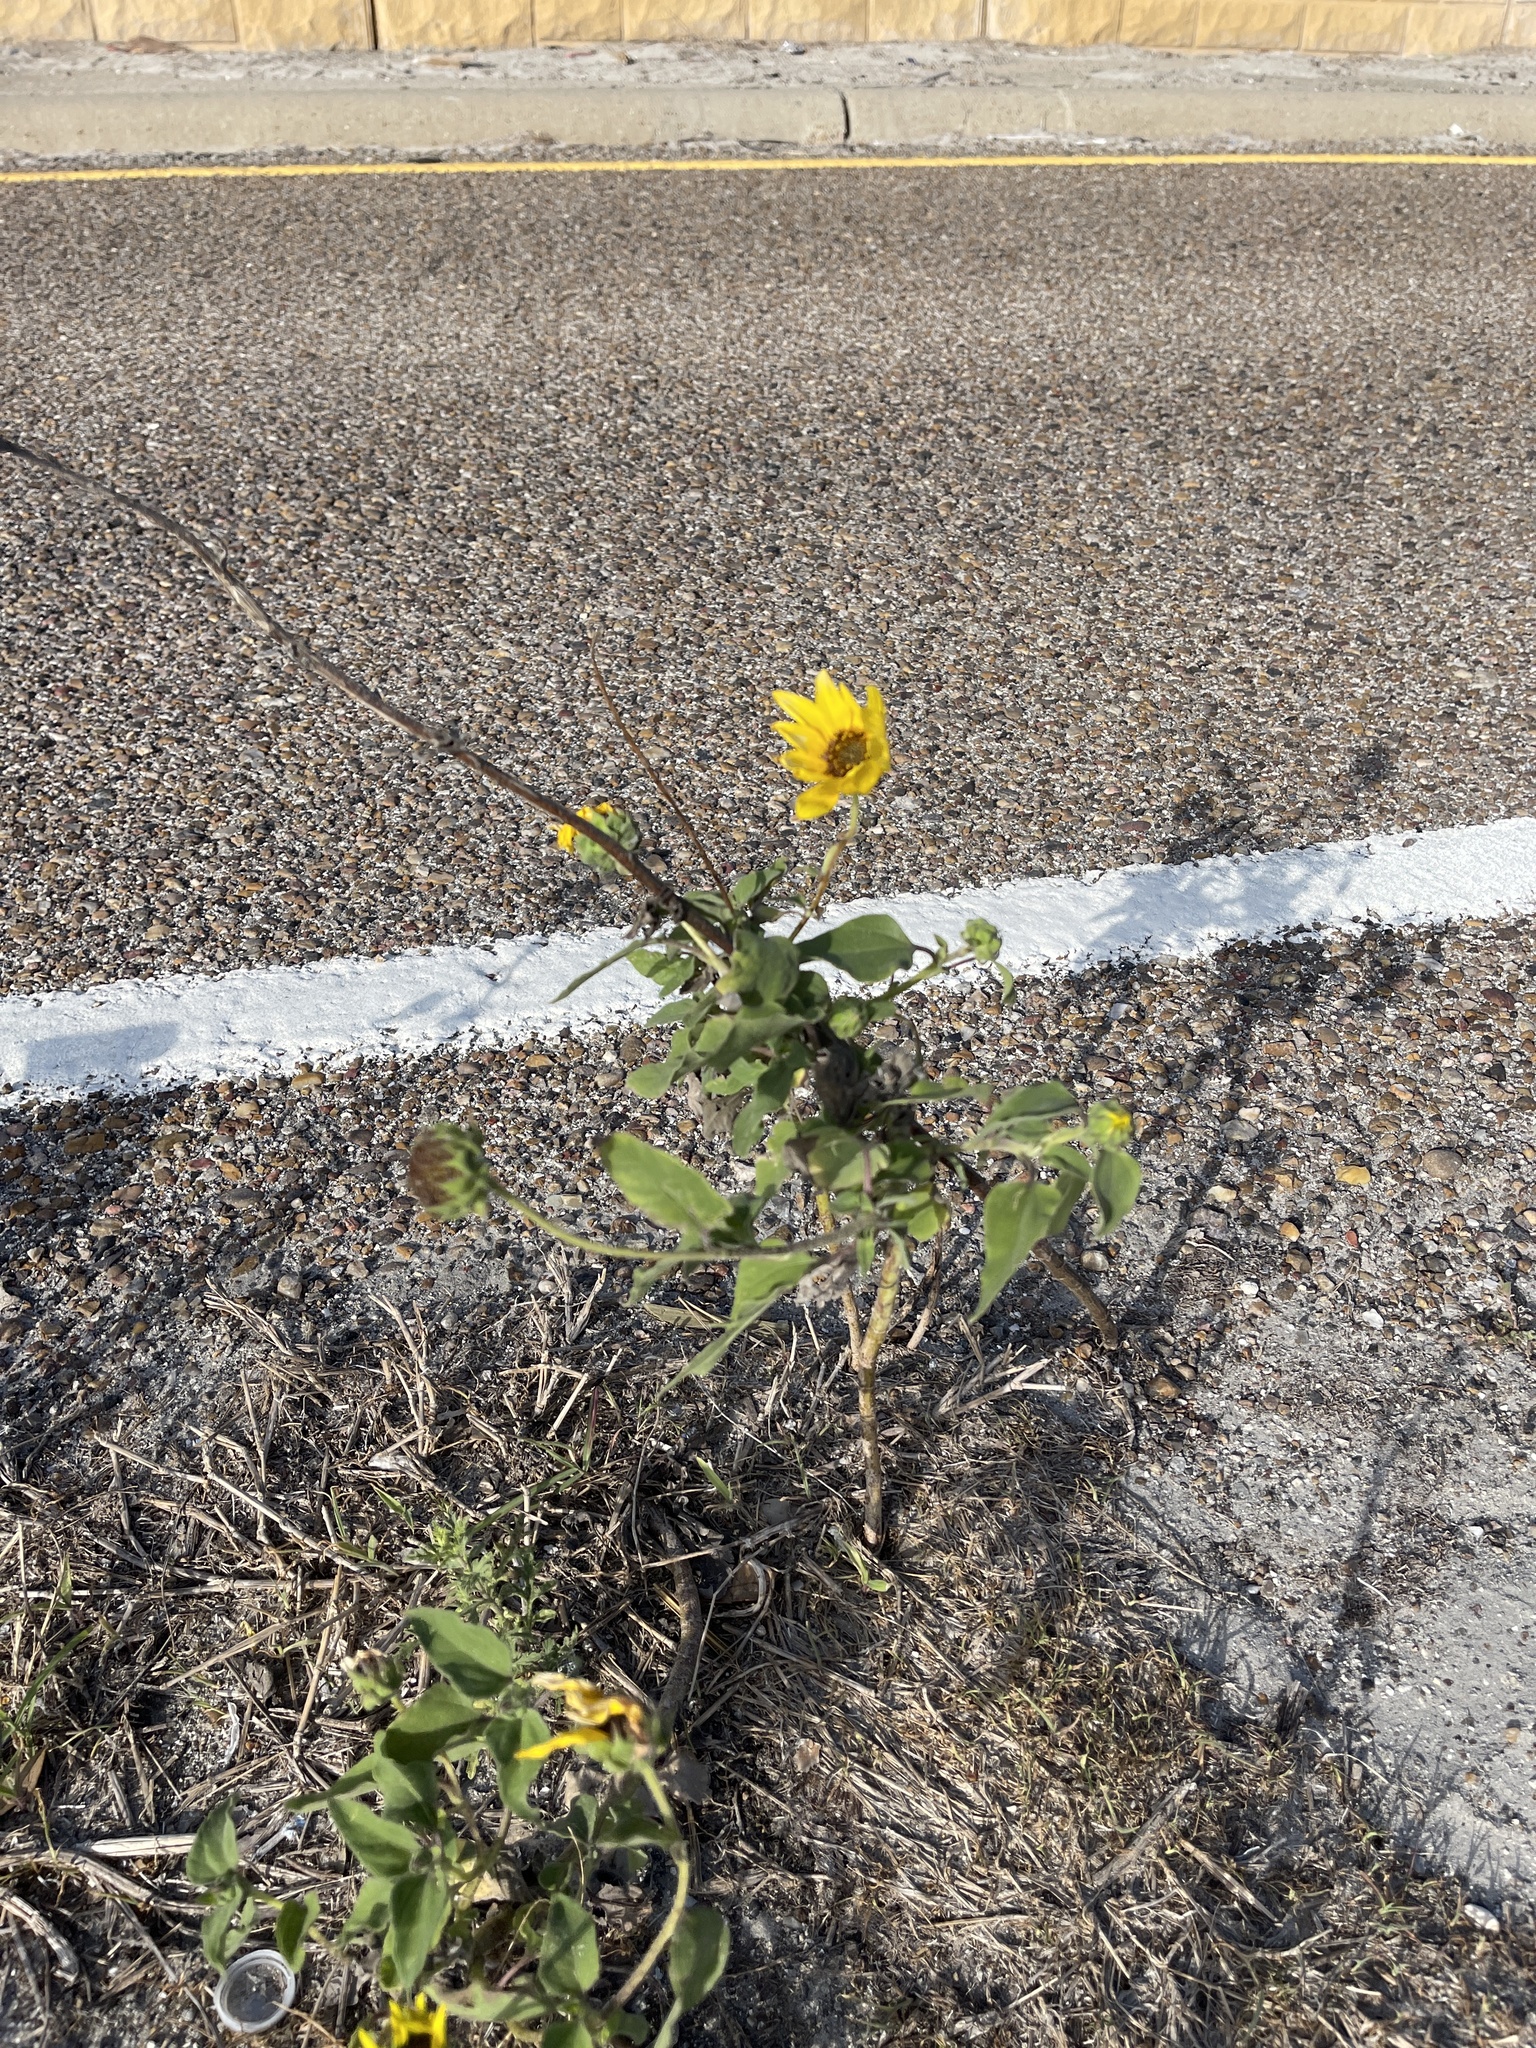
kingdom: Plantae
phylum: Tracheophyta
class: Magnoliopsida
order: Asterales
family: Asteraceae
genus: Helianthus
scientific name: Helianthus annuus
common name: Sunflower
